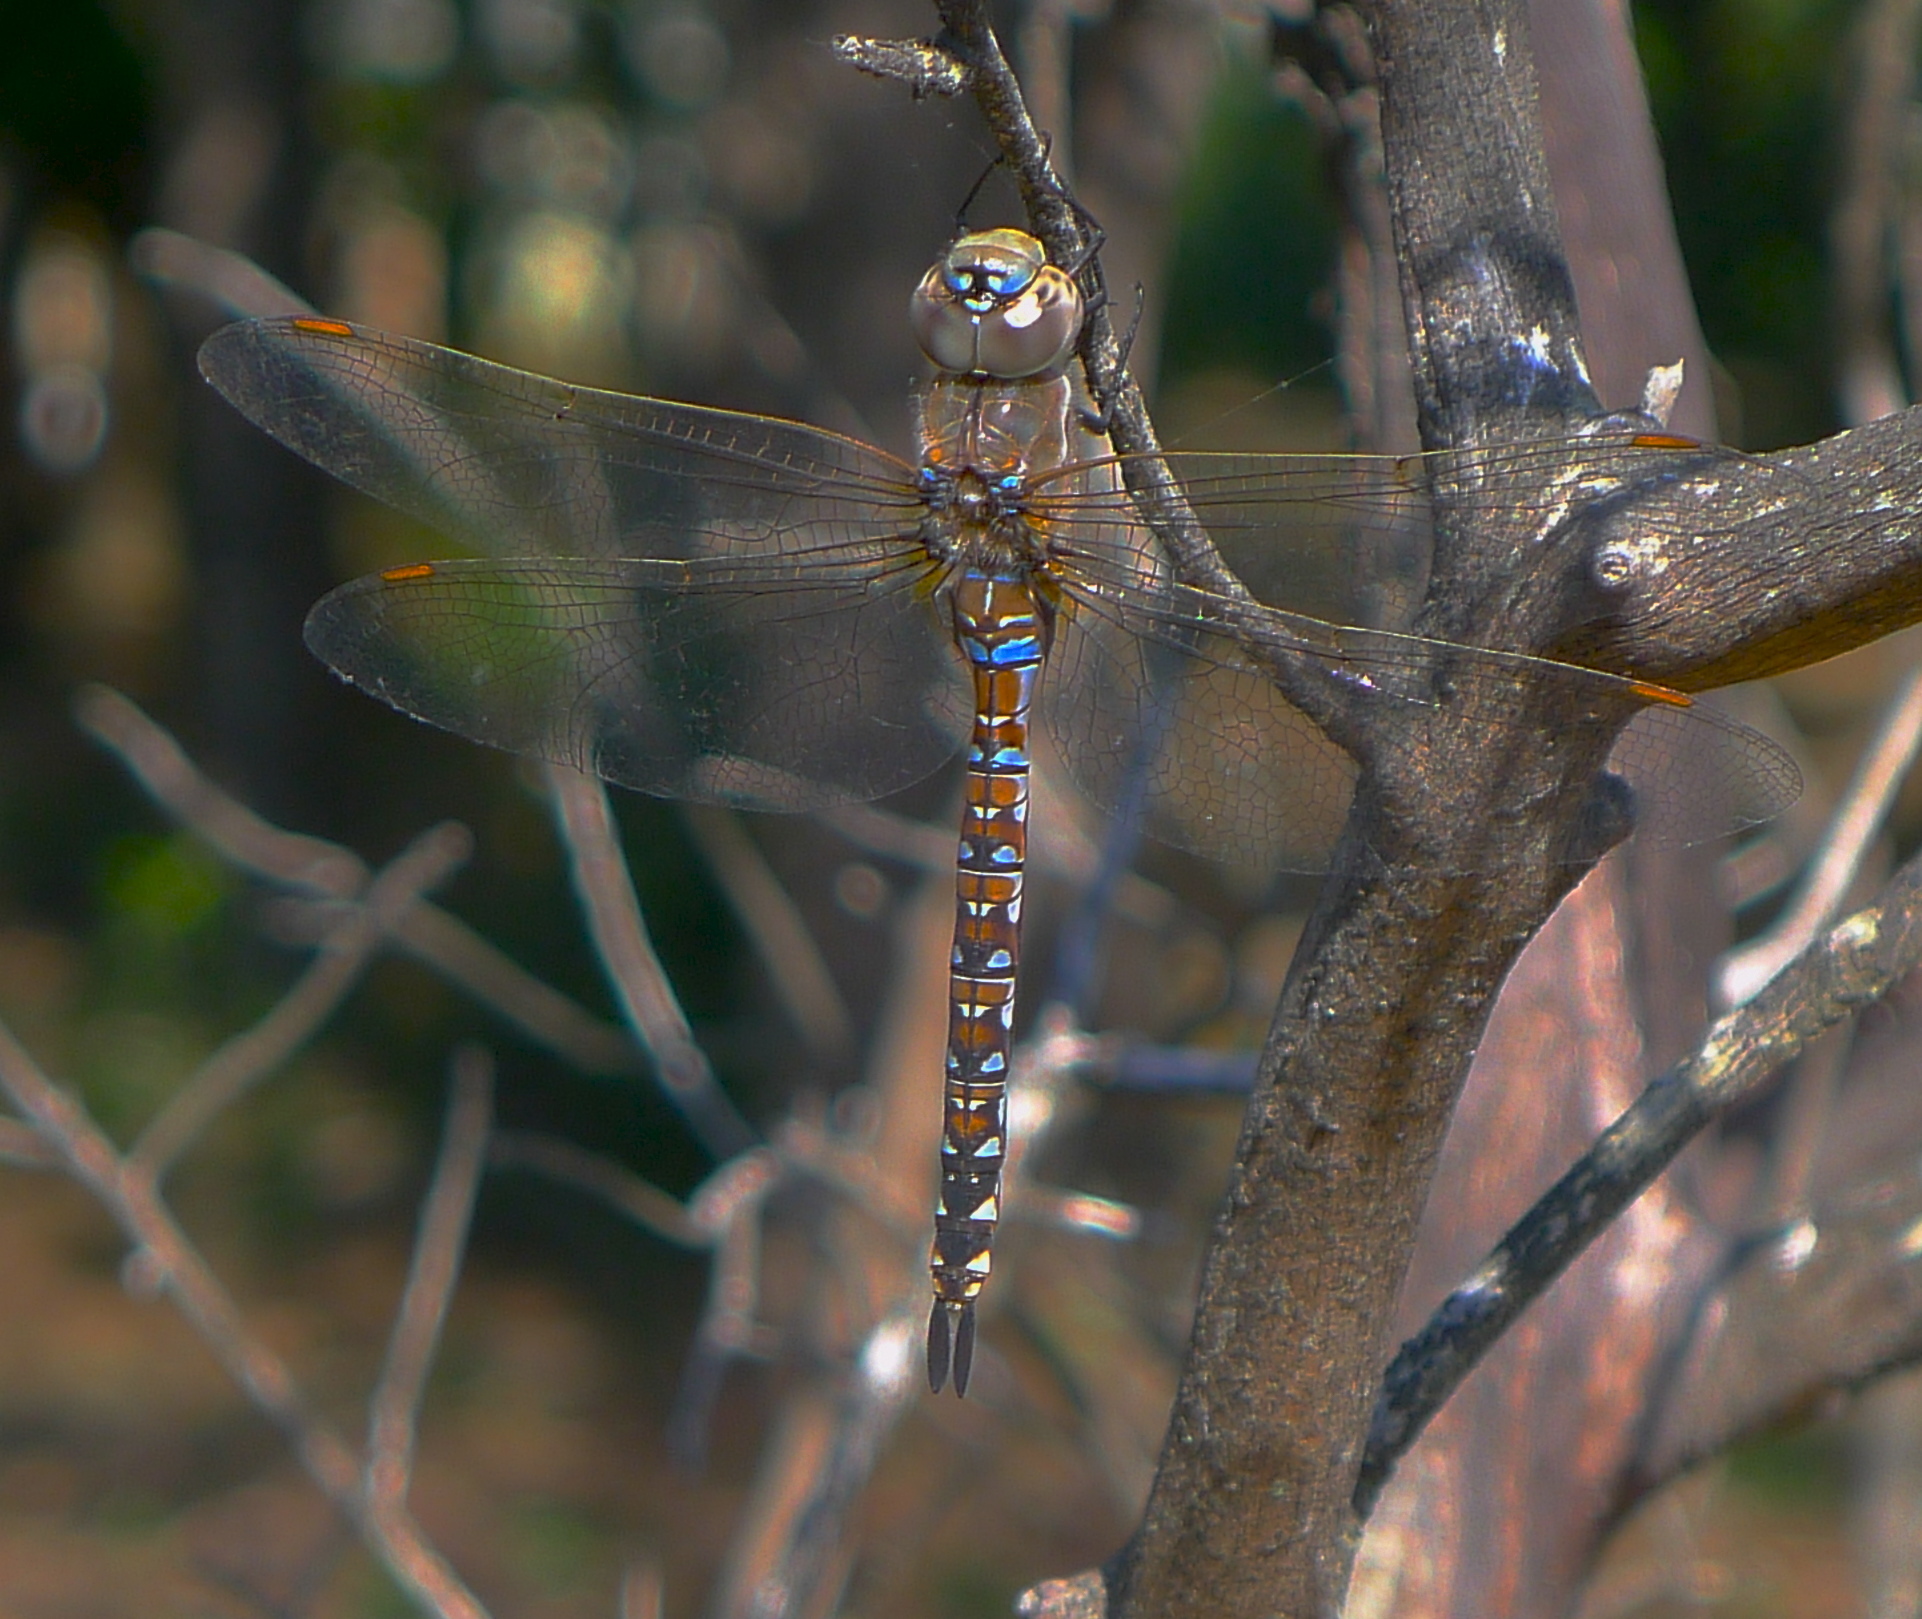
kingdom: Animalia
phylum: Arthropoda
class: Insecta
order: Odonata
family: Aeshnidae
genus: Rhionaeschna
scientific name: Rhionaeschna multicolor
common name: Blue-eyed darner
